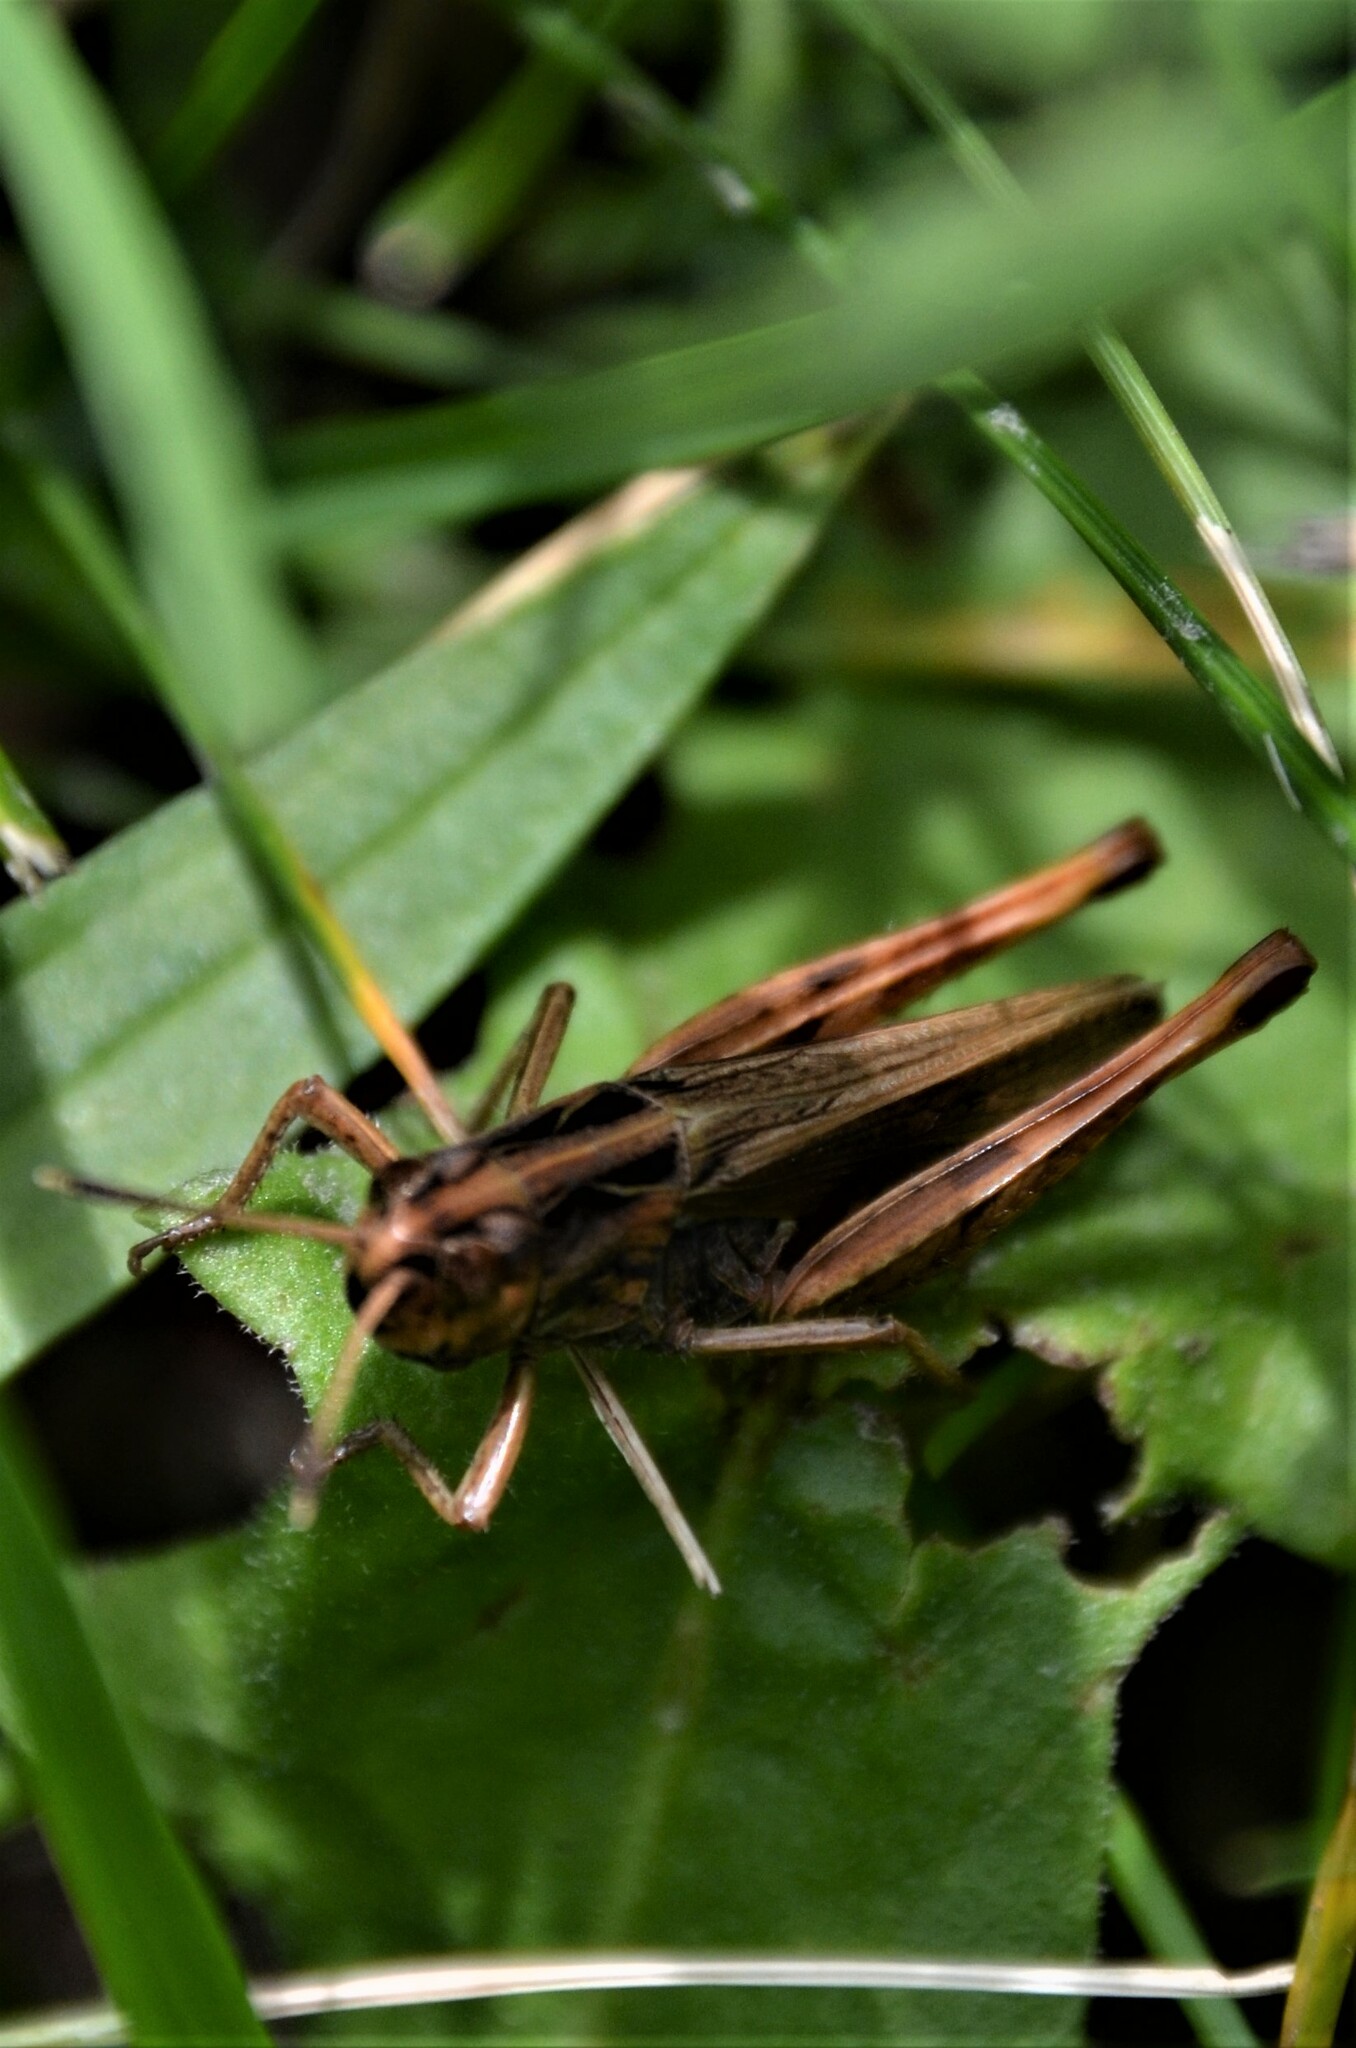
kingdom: Animalia
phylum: Arthropoda
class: Insecta
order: Orthoptera
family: Acrididae
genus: Gomphocerippus
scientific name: Gomphocerippus rufus
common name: Rufous grasshopper
